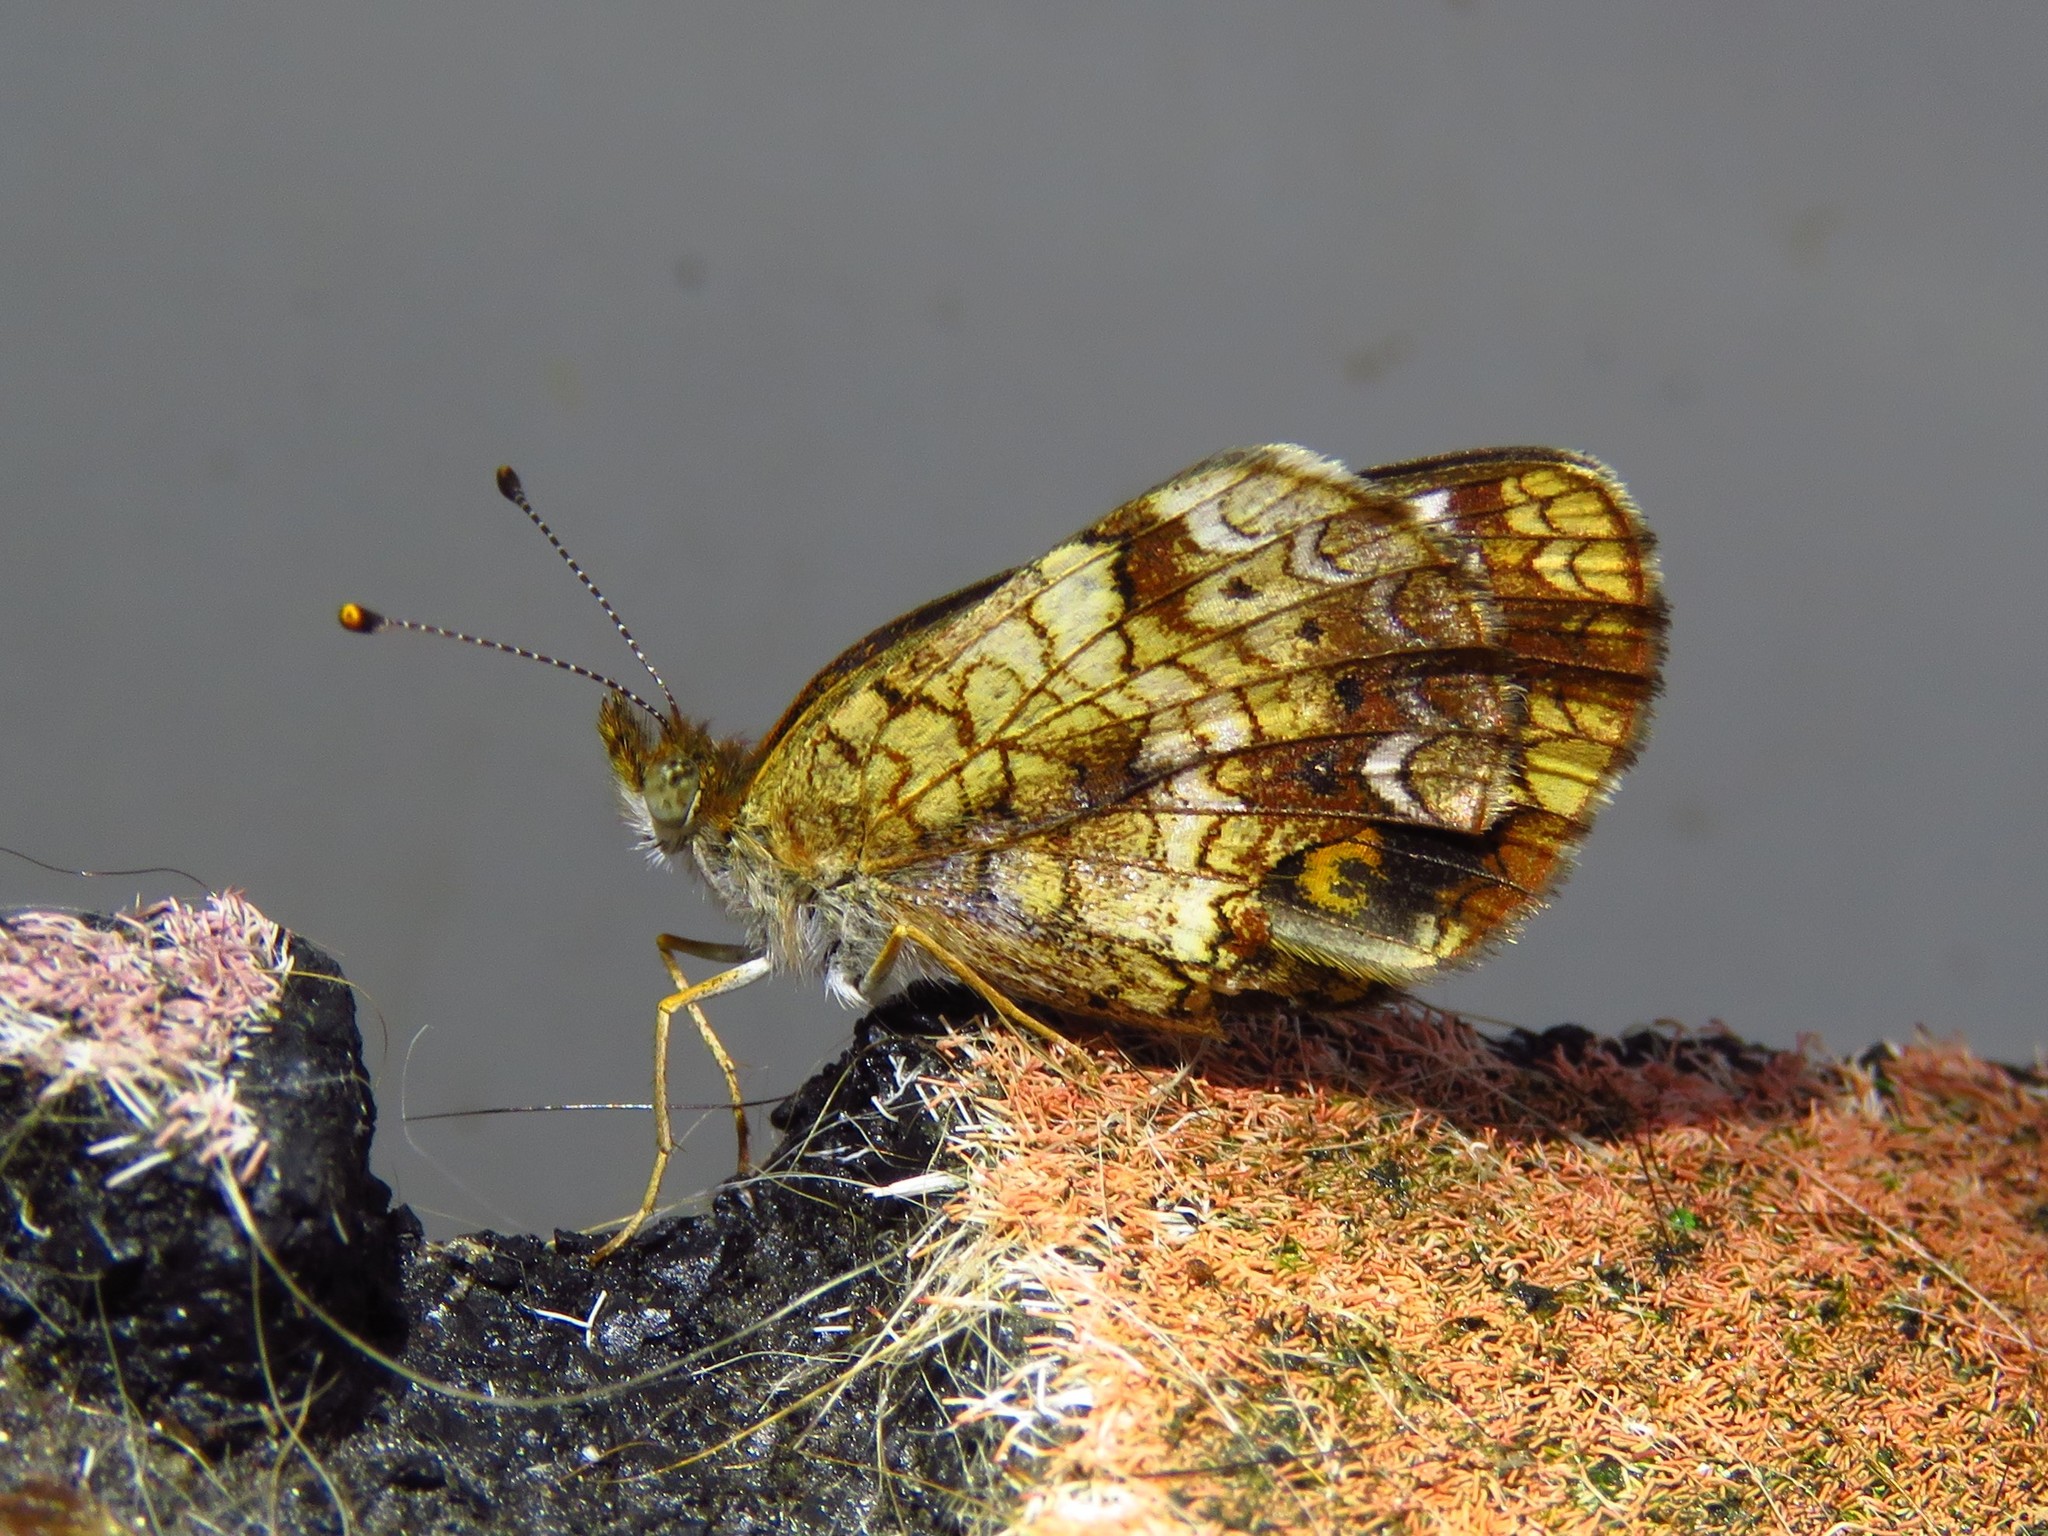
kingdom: Animalia
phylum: Arthropoda
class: Insecta
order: Lepidoptera
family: Nymphalidae
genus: Phyciodes
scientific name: Phyciodes tharos
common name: Pearl crescent
